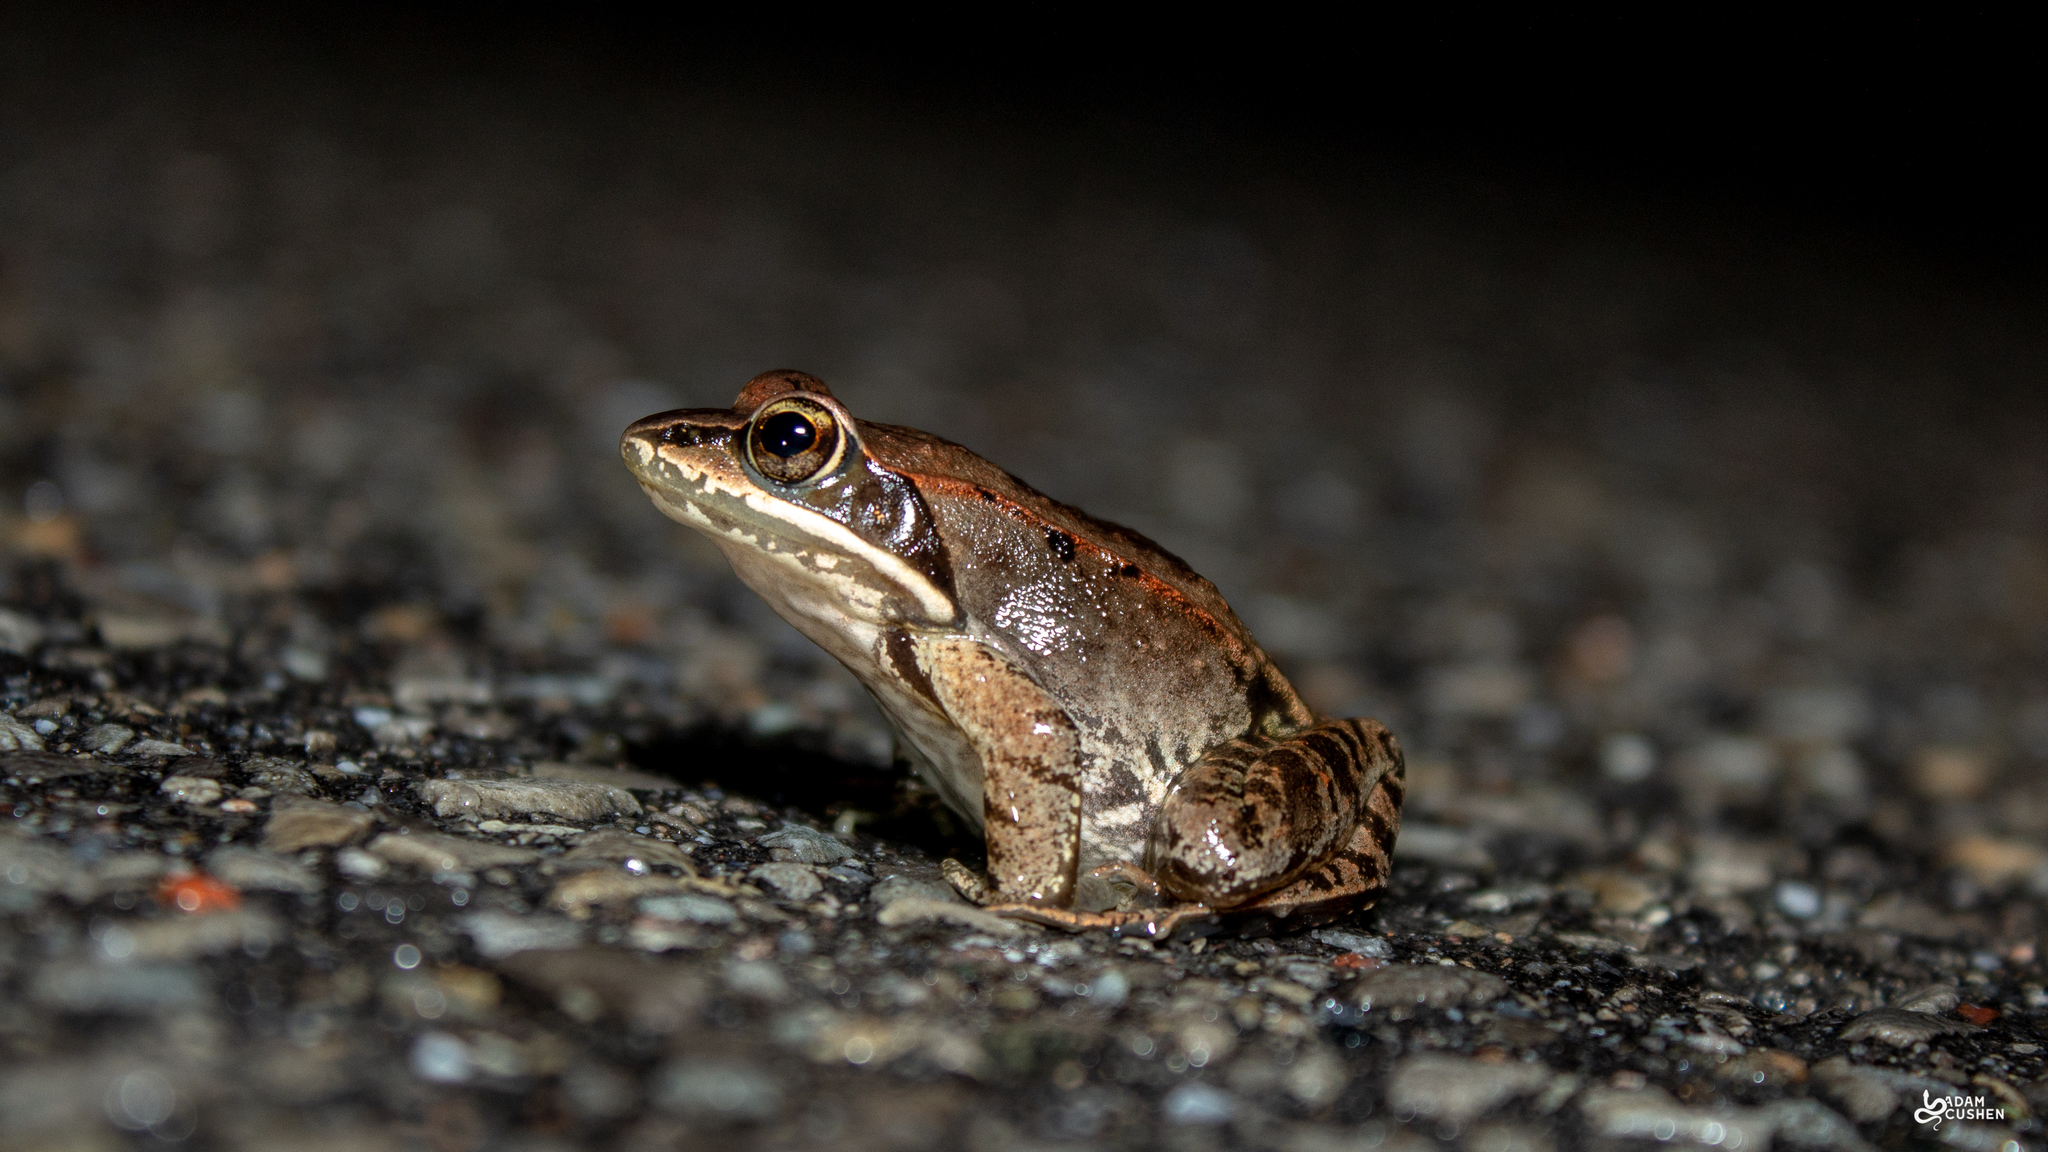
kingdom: Animalia
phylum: Chordata
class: Amphibia
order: Anura
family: Ranidae
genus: Lithobates
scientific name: Lithobates sylvaticus
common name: Wood frog
